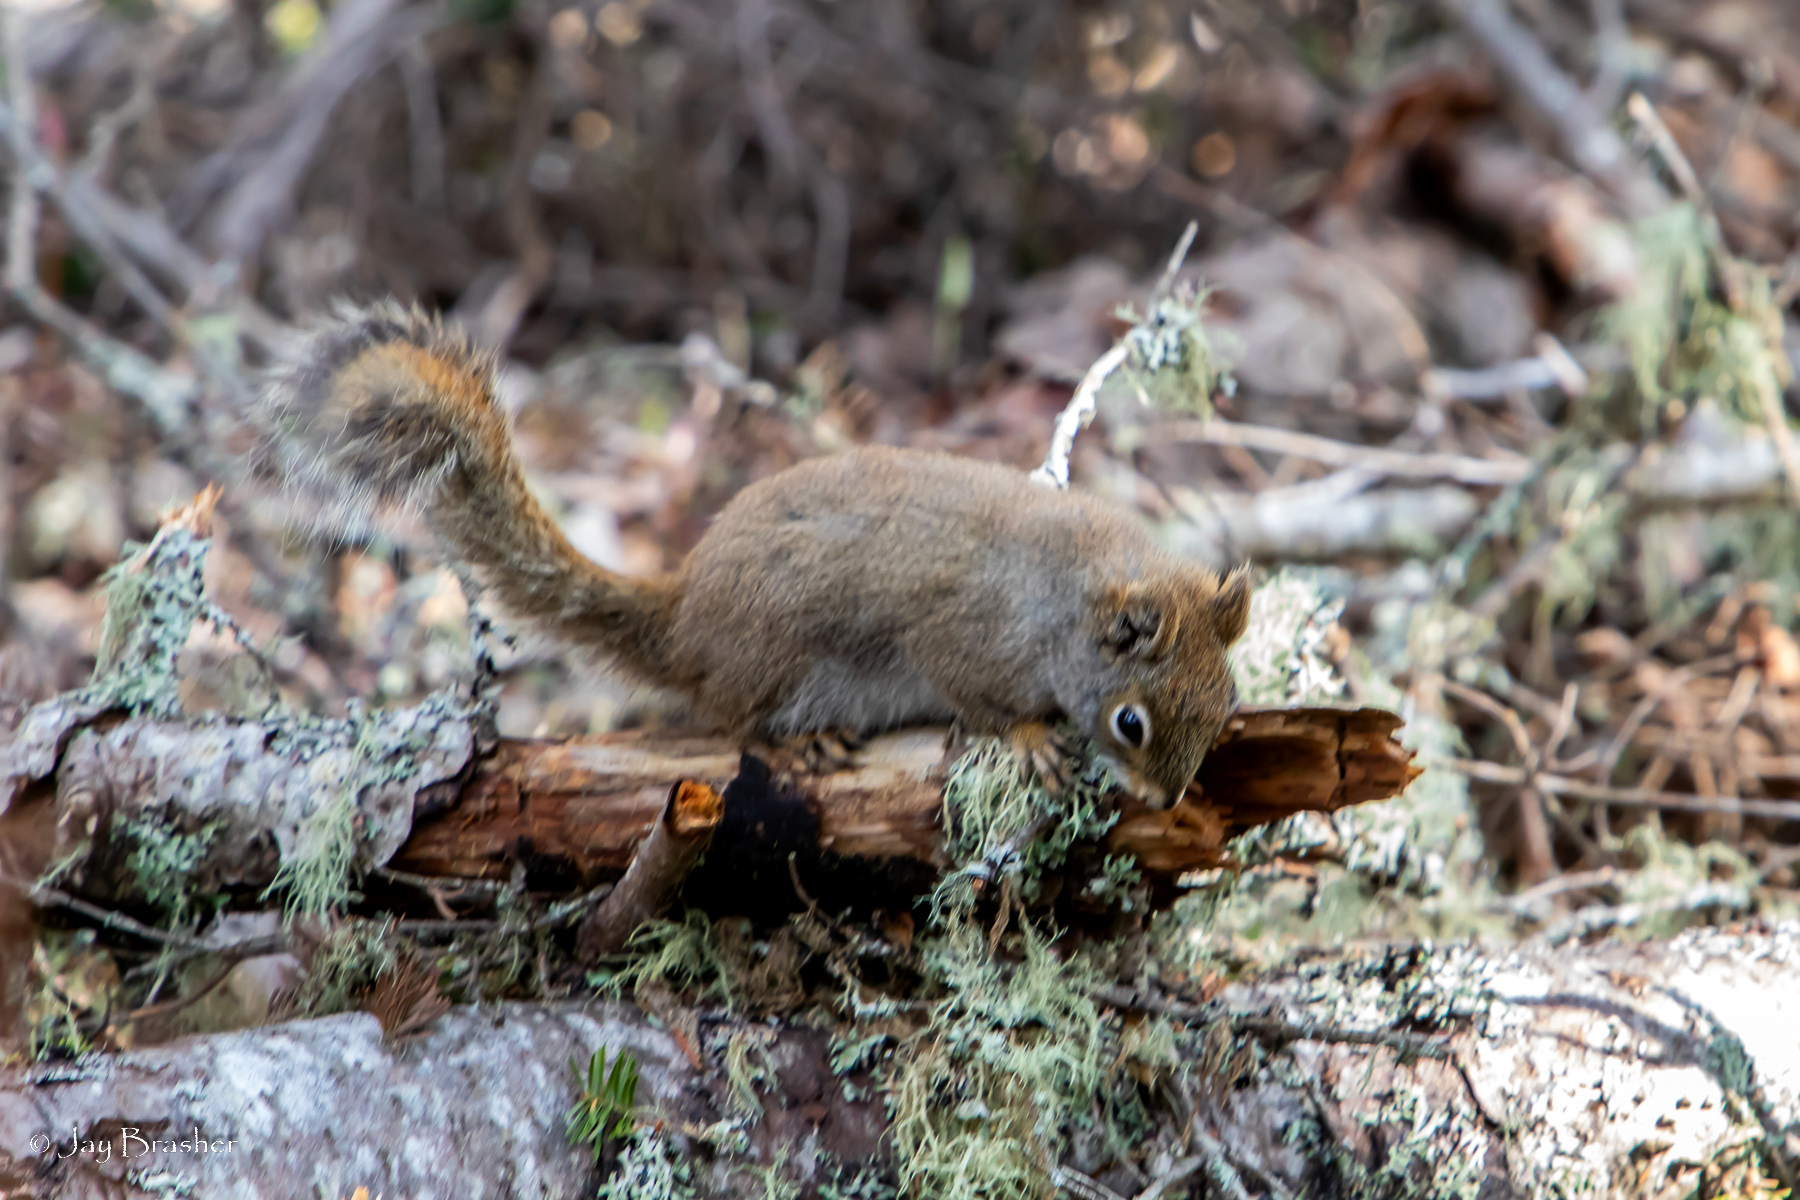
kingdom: Animalia
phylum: Chordata
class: Mammalia
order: Rodentia
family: Sciuridae
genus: Tamiasciurus
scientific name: Tamiasciurus hudsonicus
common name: Red squirrel
